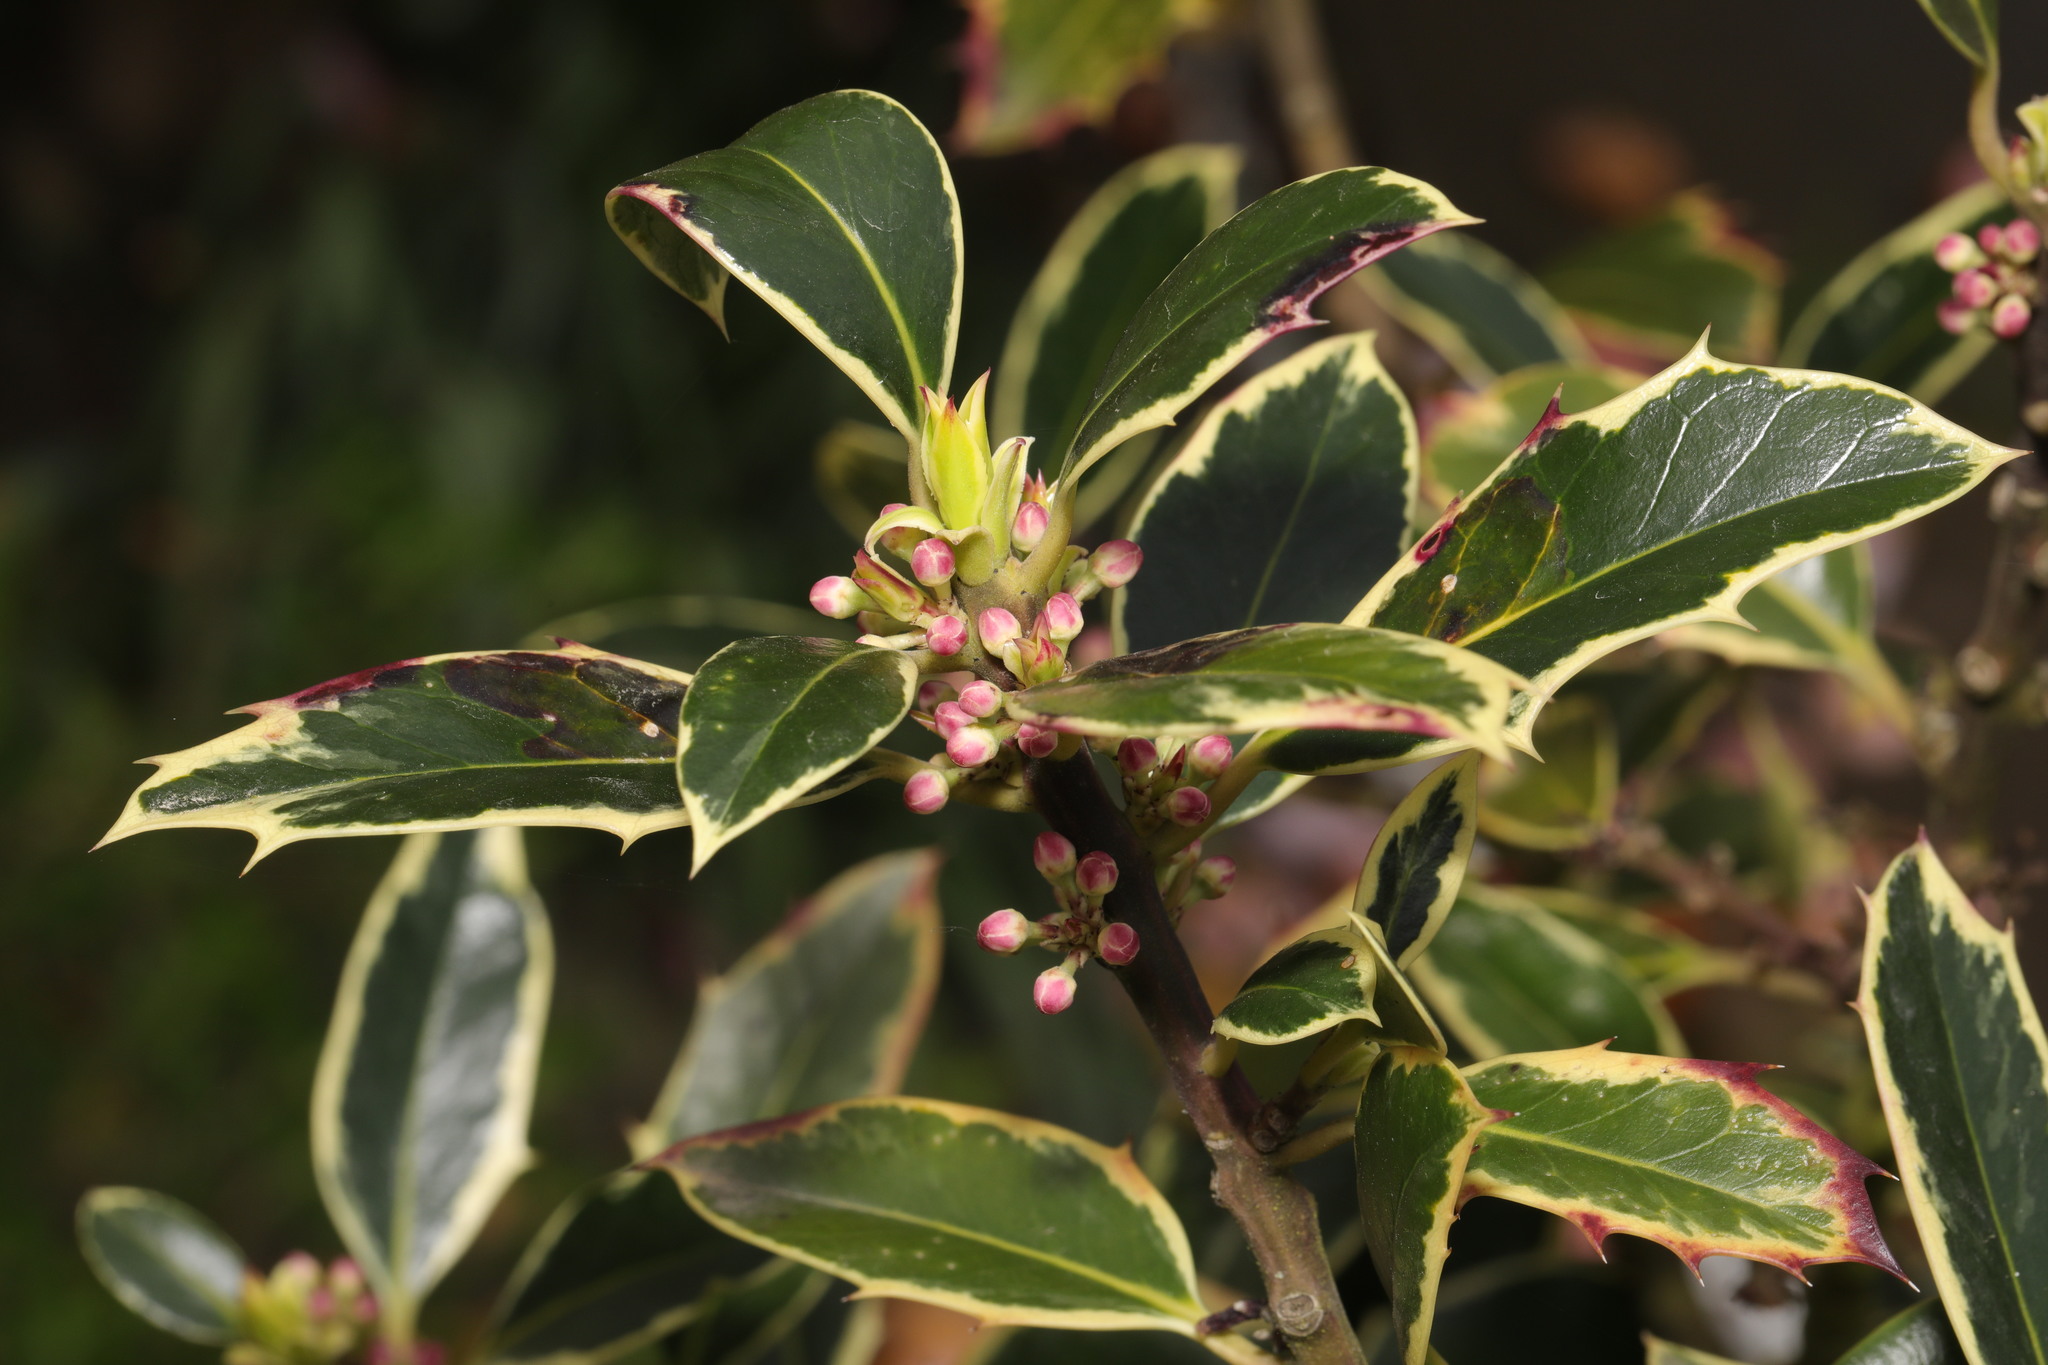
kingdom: Plantae
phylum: Tracheophyta
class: Magnoliopsida
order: Aquifoliales
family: Aquifoliaceae
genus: Ilex
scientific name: Ilex aquifolium
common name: English holly
